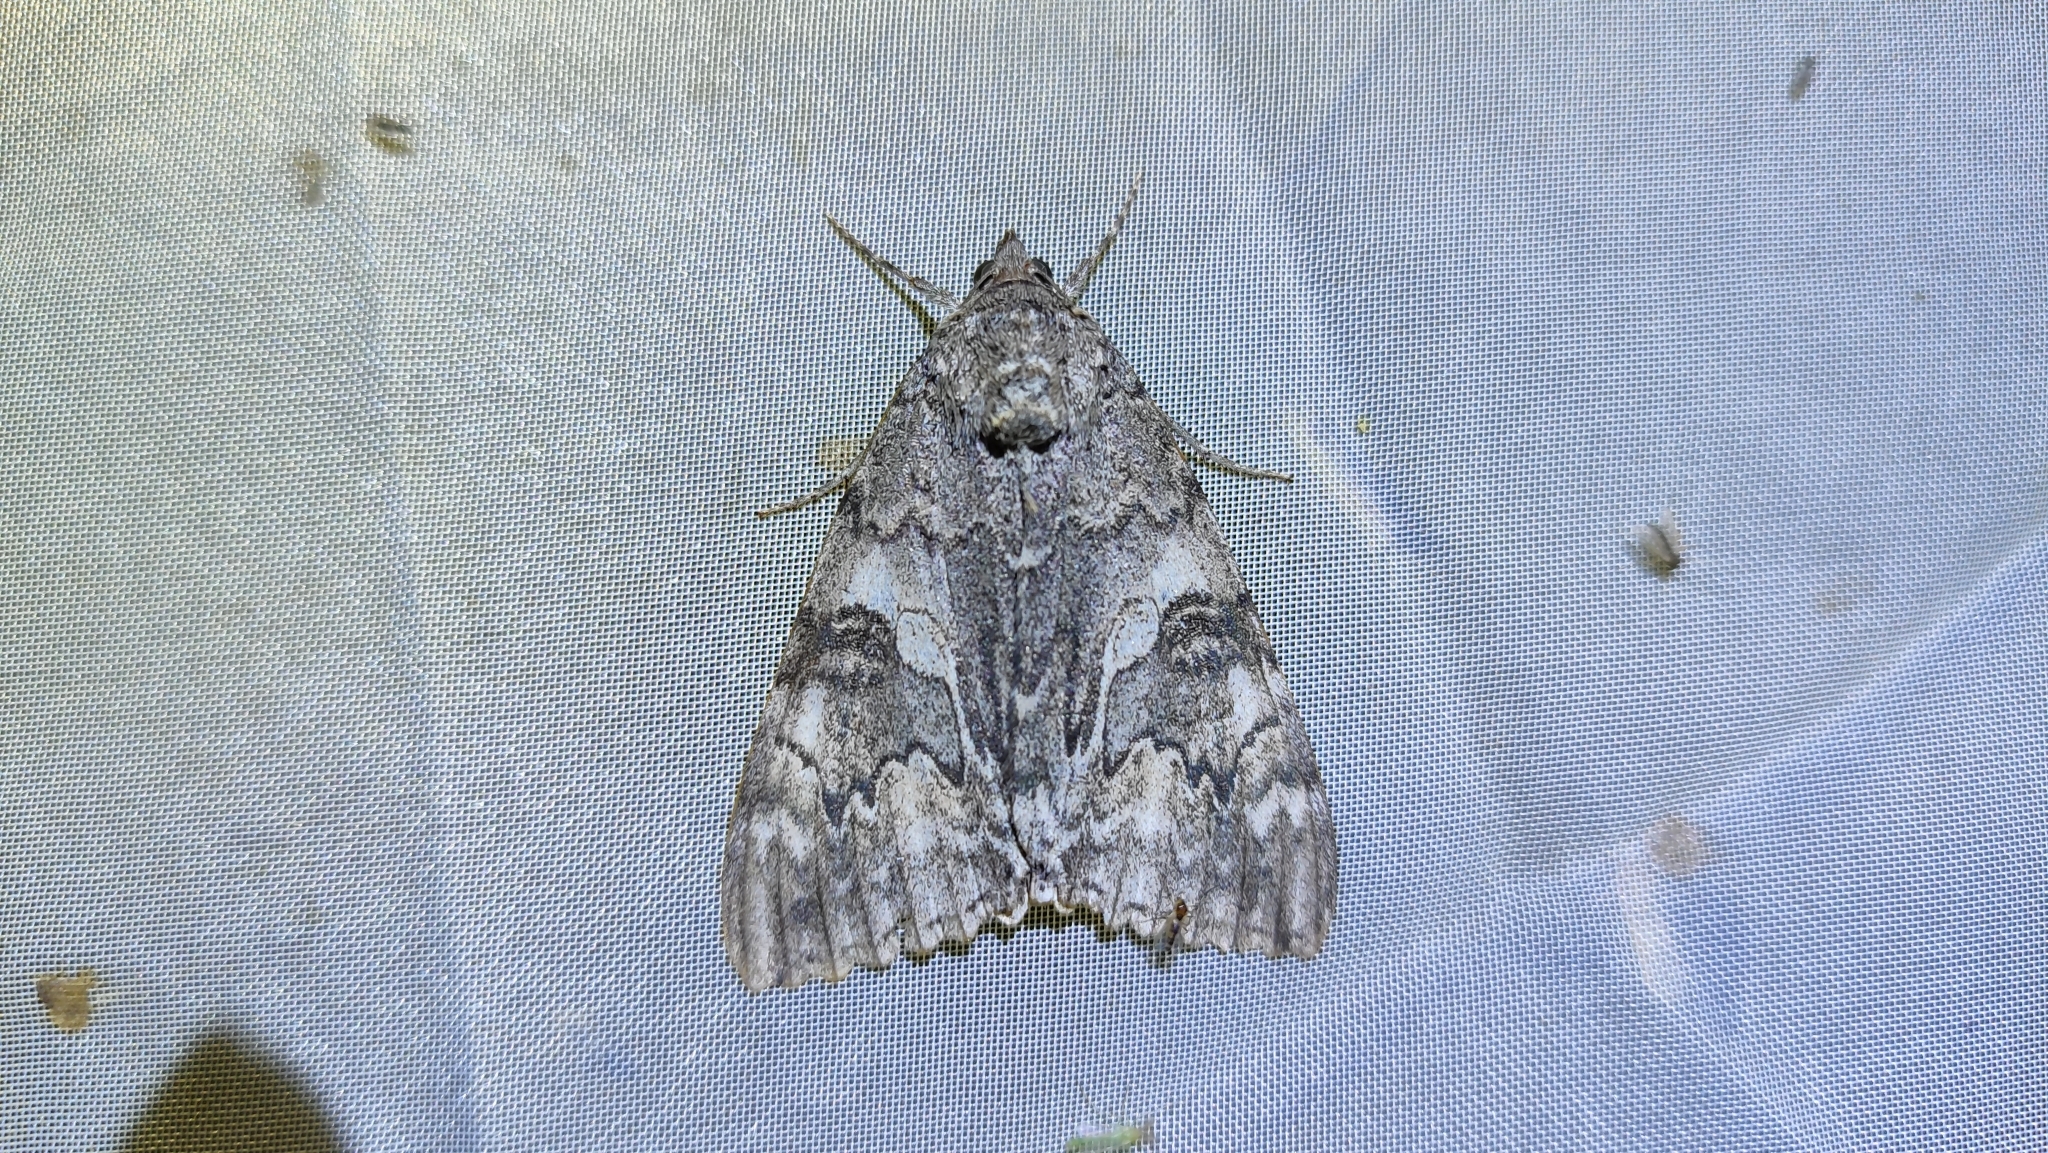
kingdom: Animalia
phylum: Arthropoda
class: Insecta
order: Lepidoptera
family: Erebidae
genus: Catocala
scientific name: Catocala nupta
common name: Red underwing
